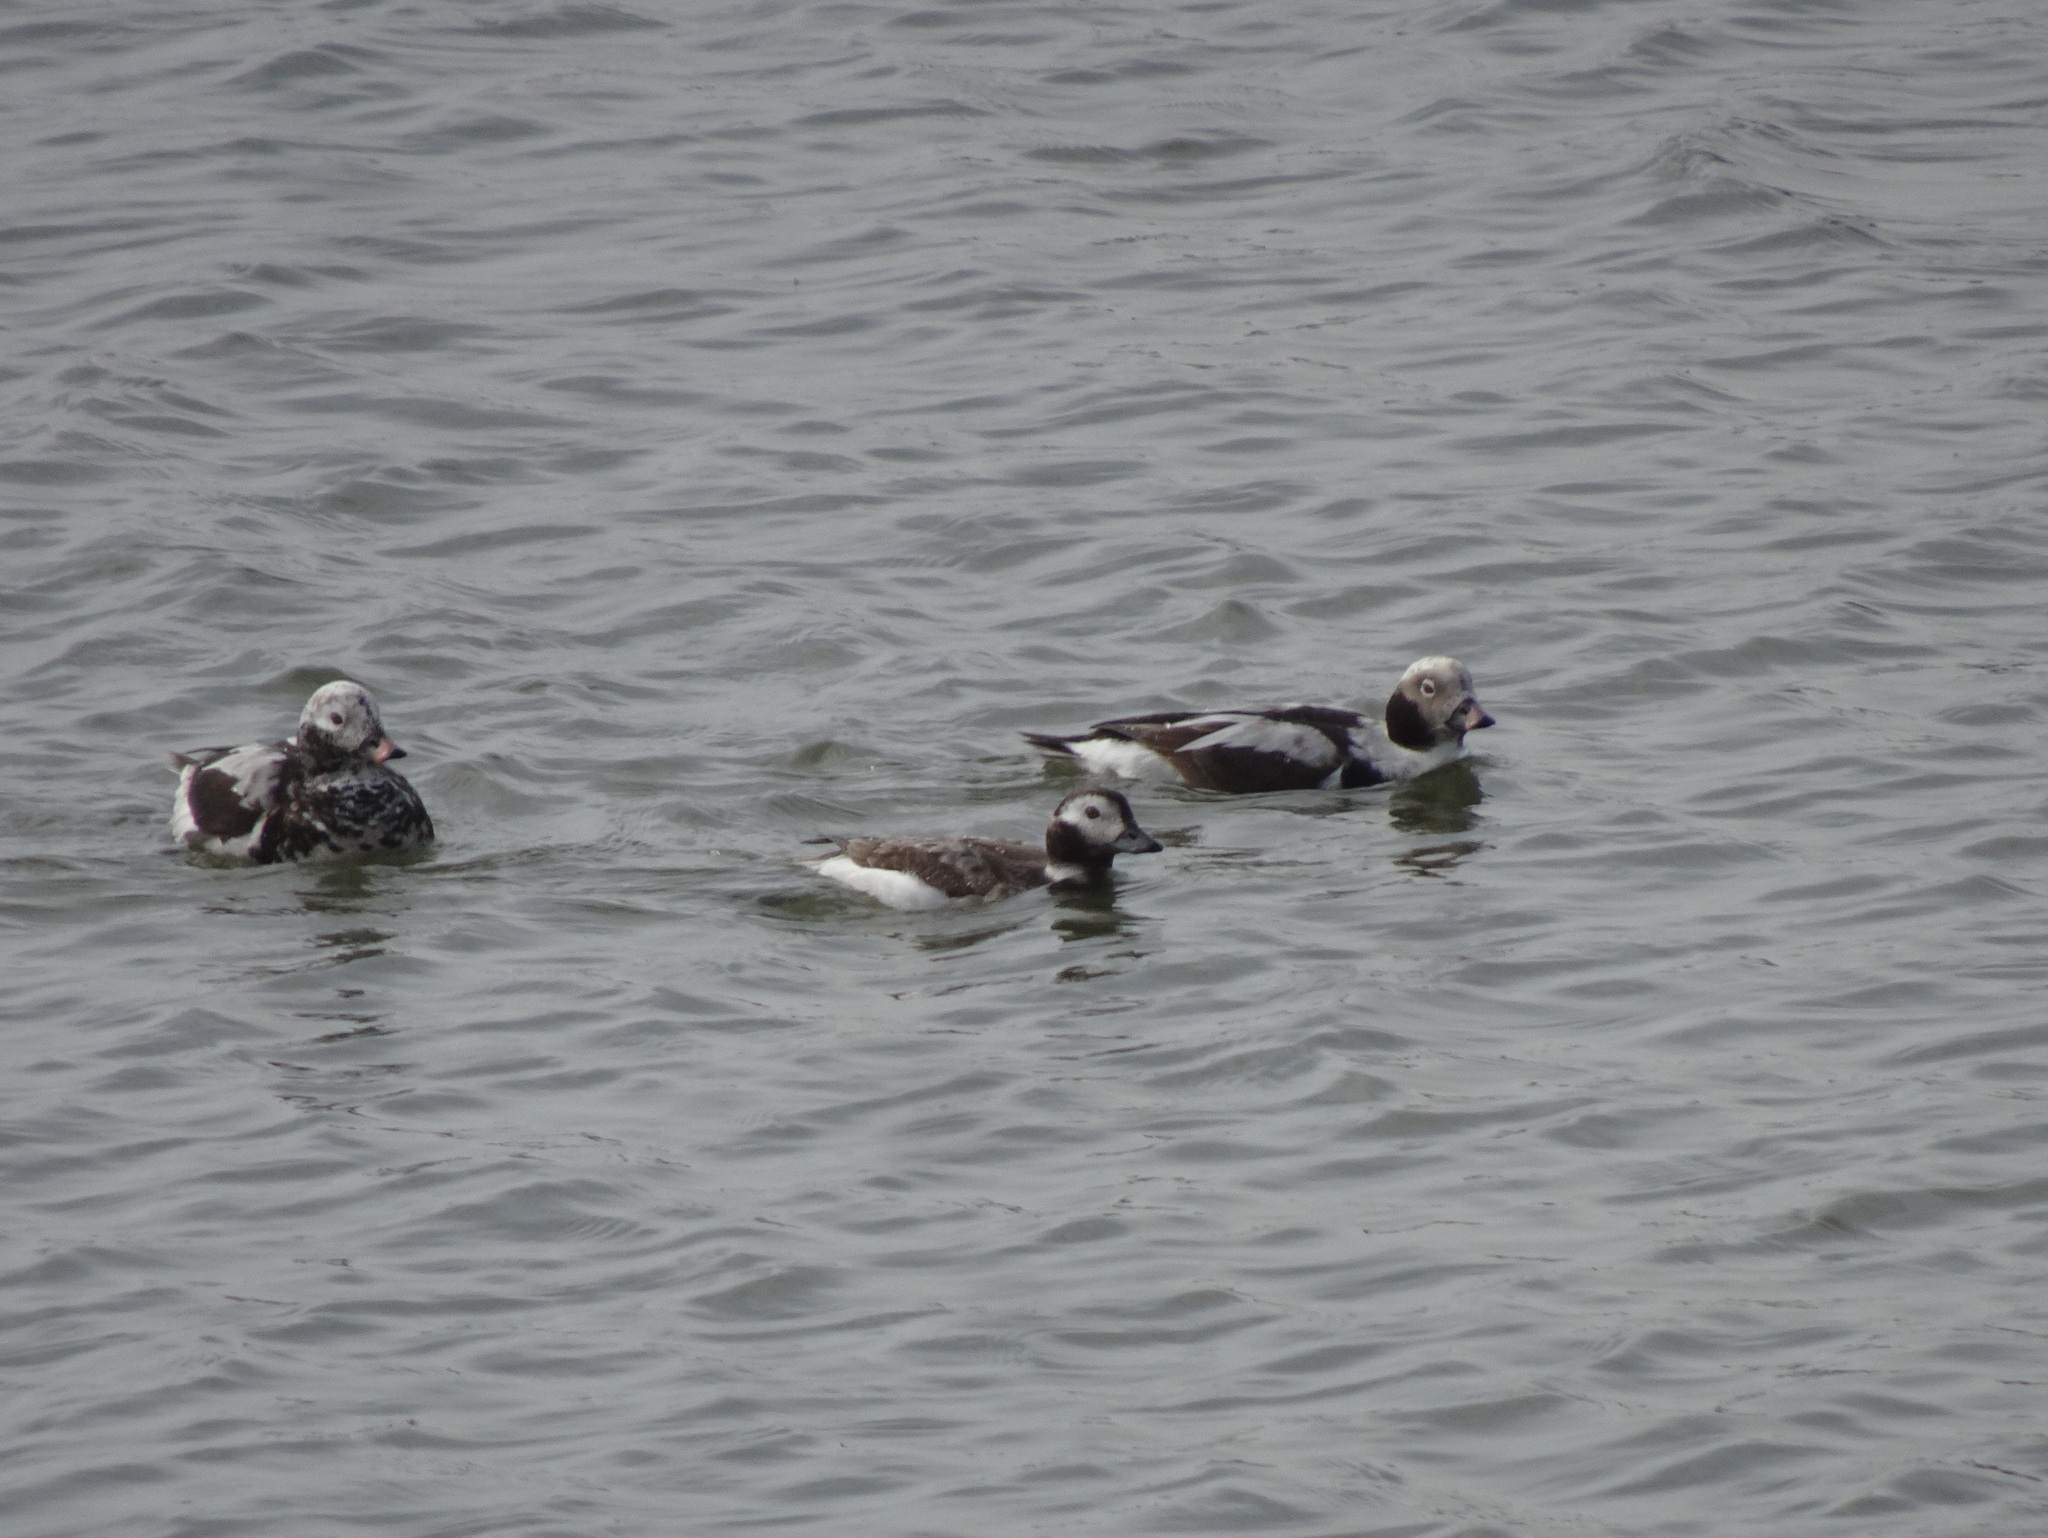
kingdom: Animalia
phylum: Chordata
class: Aves
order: Anseriformes
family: Anatidae
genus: Clangula
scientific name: Clangula hyemalis
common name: Long-tailed duck
